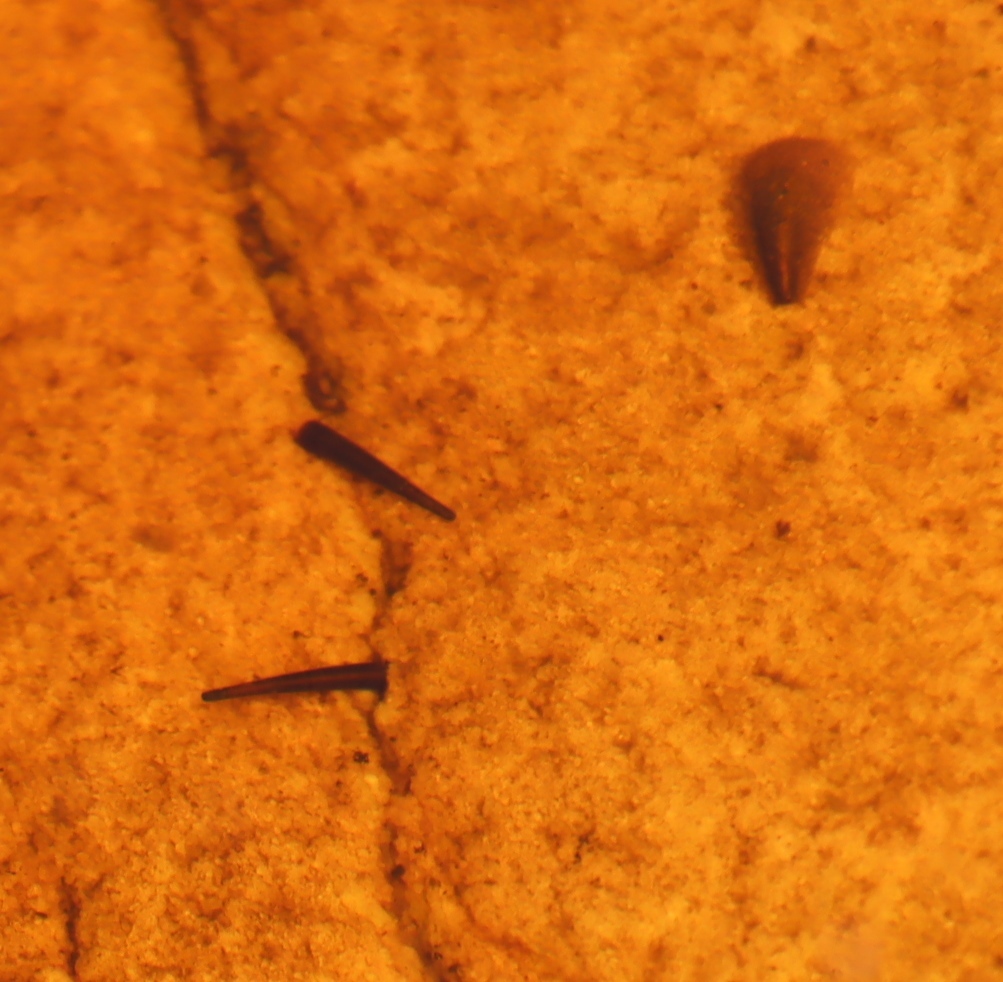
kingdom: Animalia
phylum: Arthropoda
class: Insecta
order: Trichoptera
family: Hydrosalpingidae
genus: Hydrosalpinx
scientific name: Hydrosalpinx sericea
